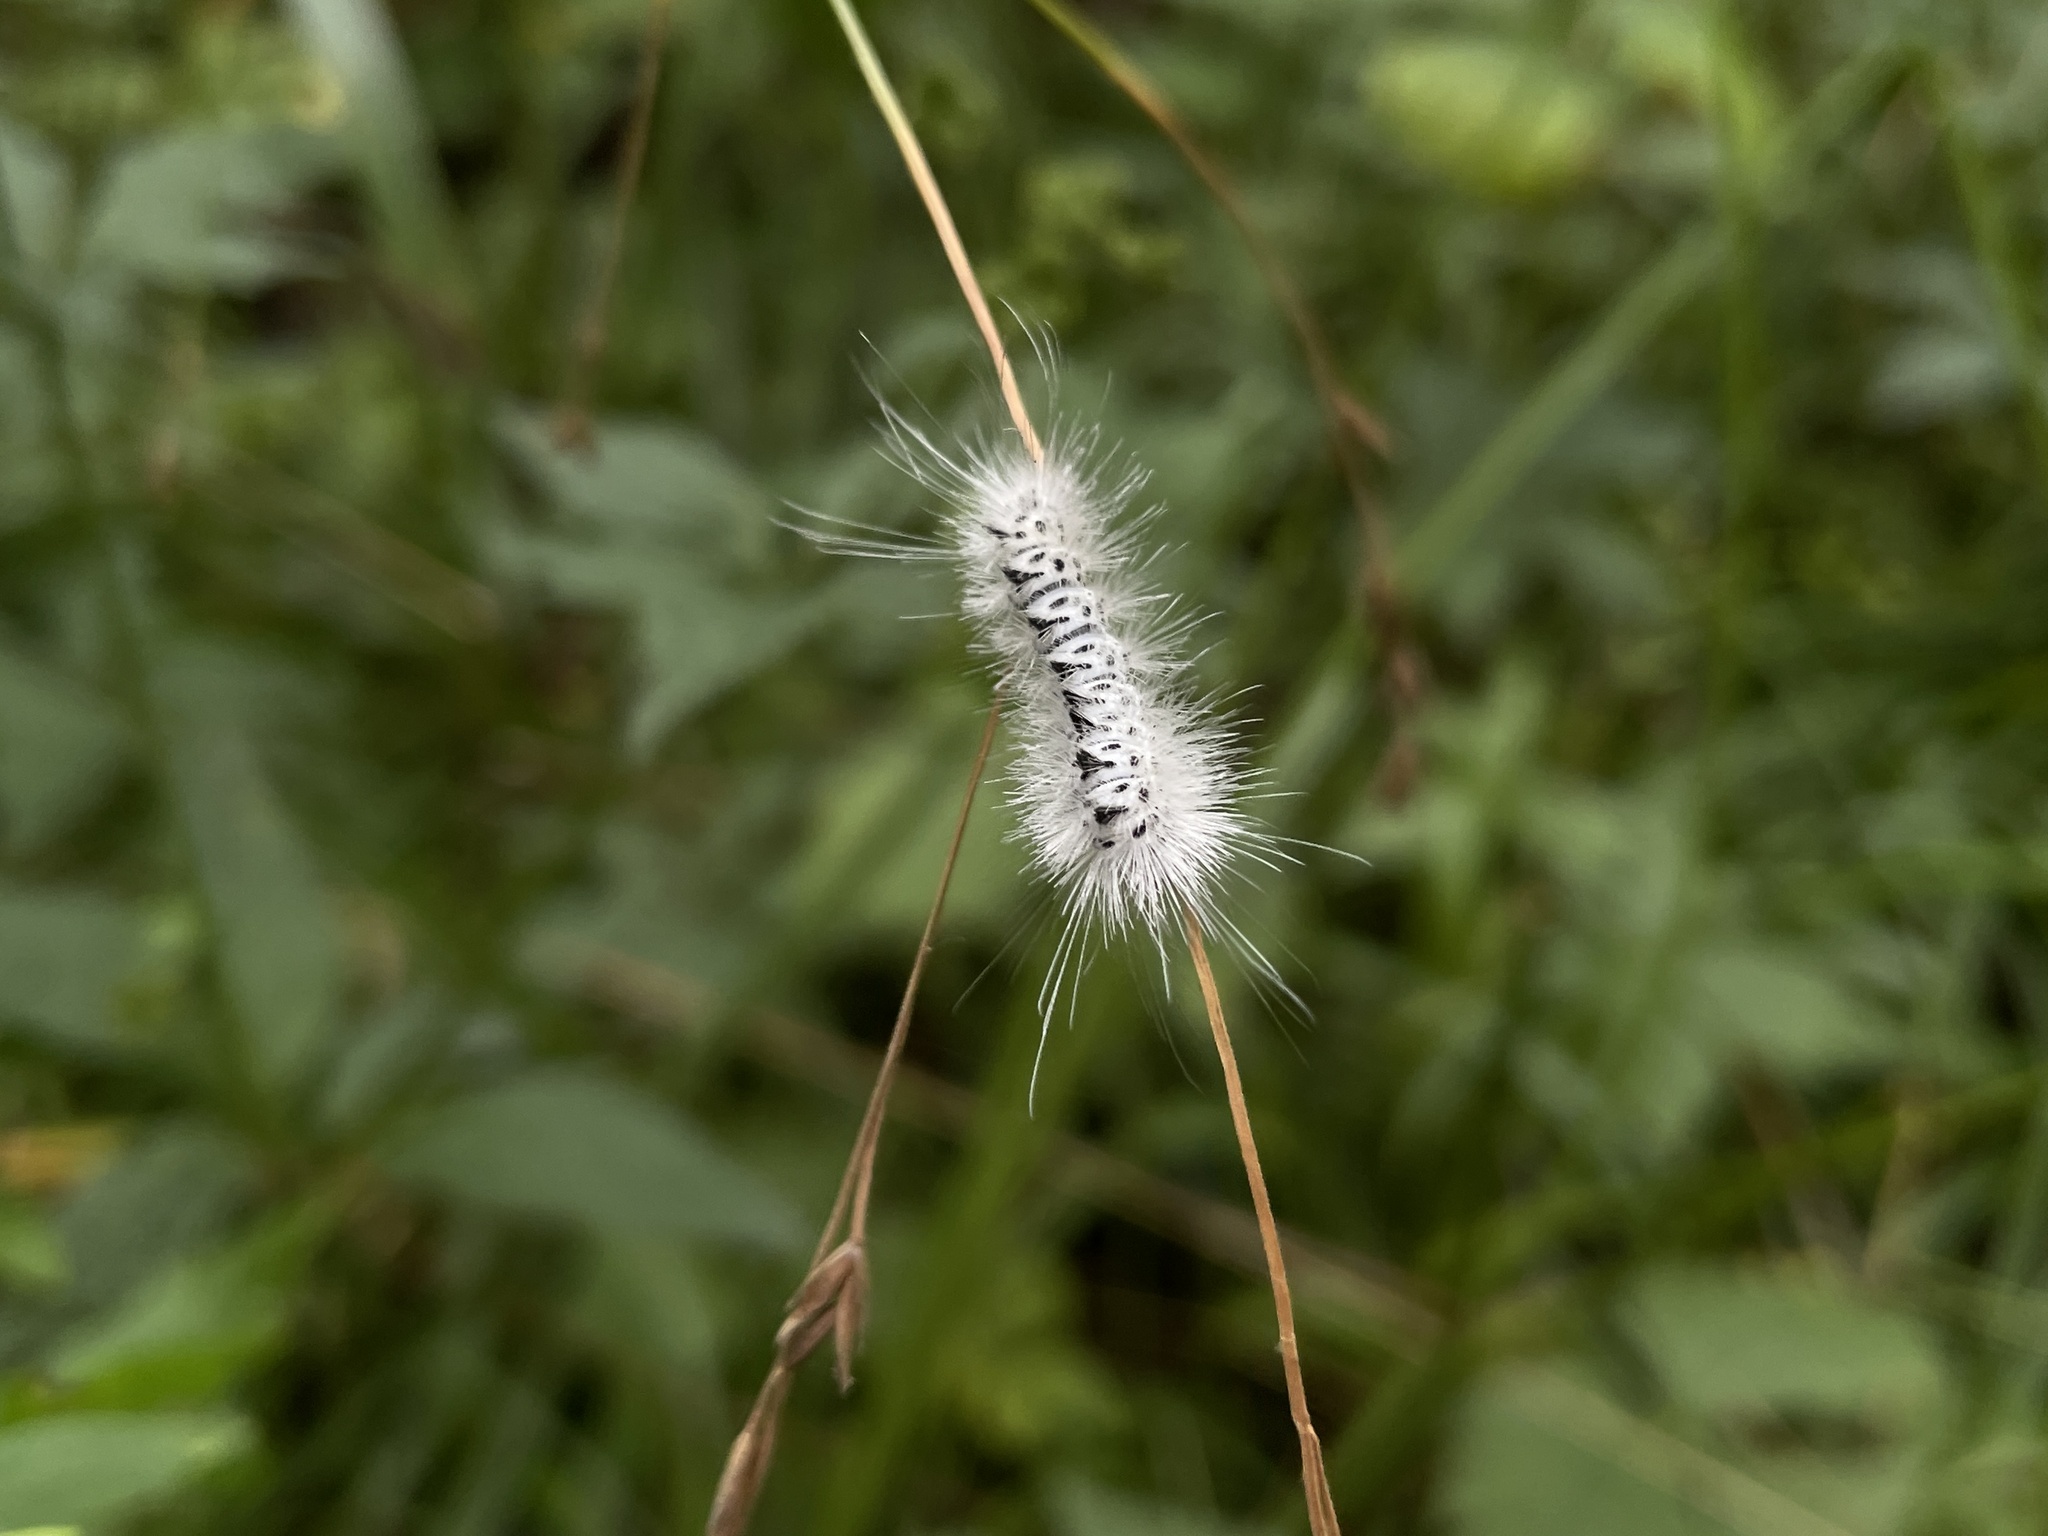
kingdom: Animalia
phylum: Arthropoda
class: Insecta
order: Lepidoptera
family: Erebidae
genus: Lophocampa
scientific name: Lophocampa caryae
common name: Hickory tussock moth
